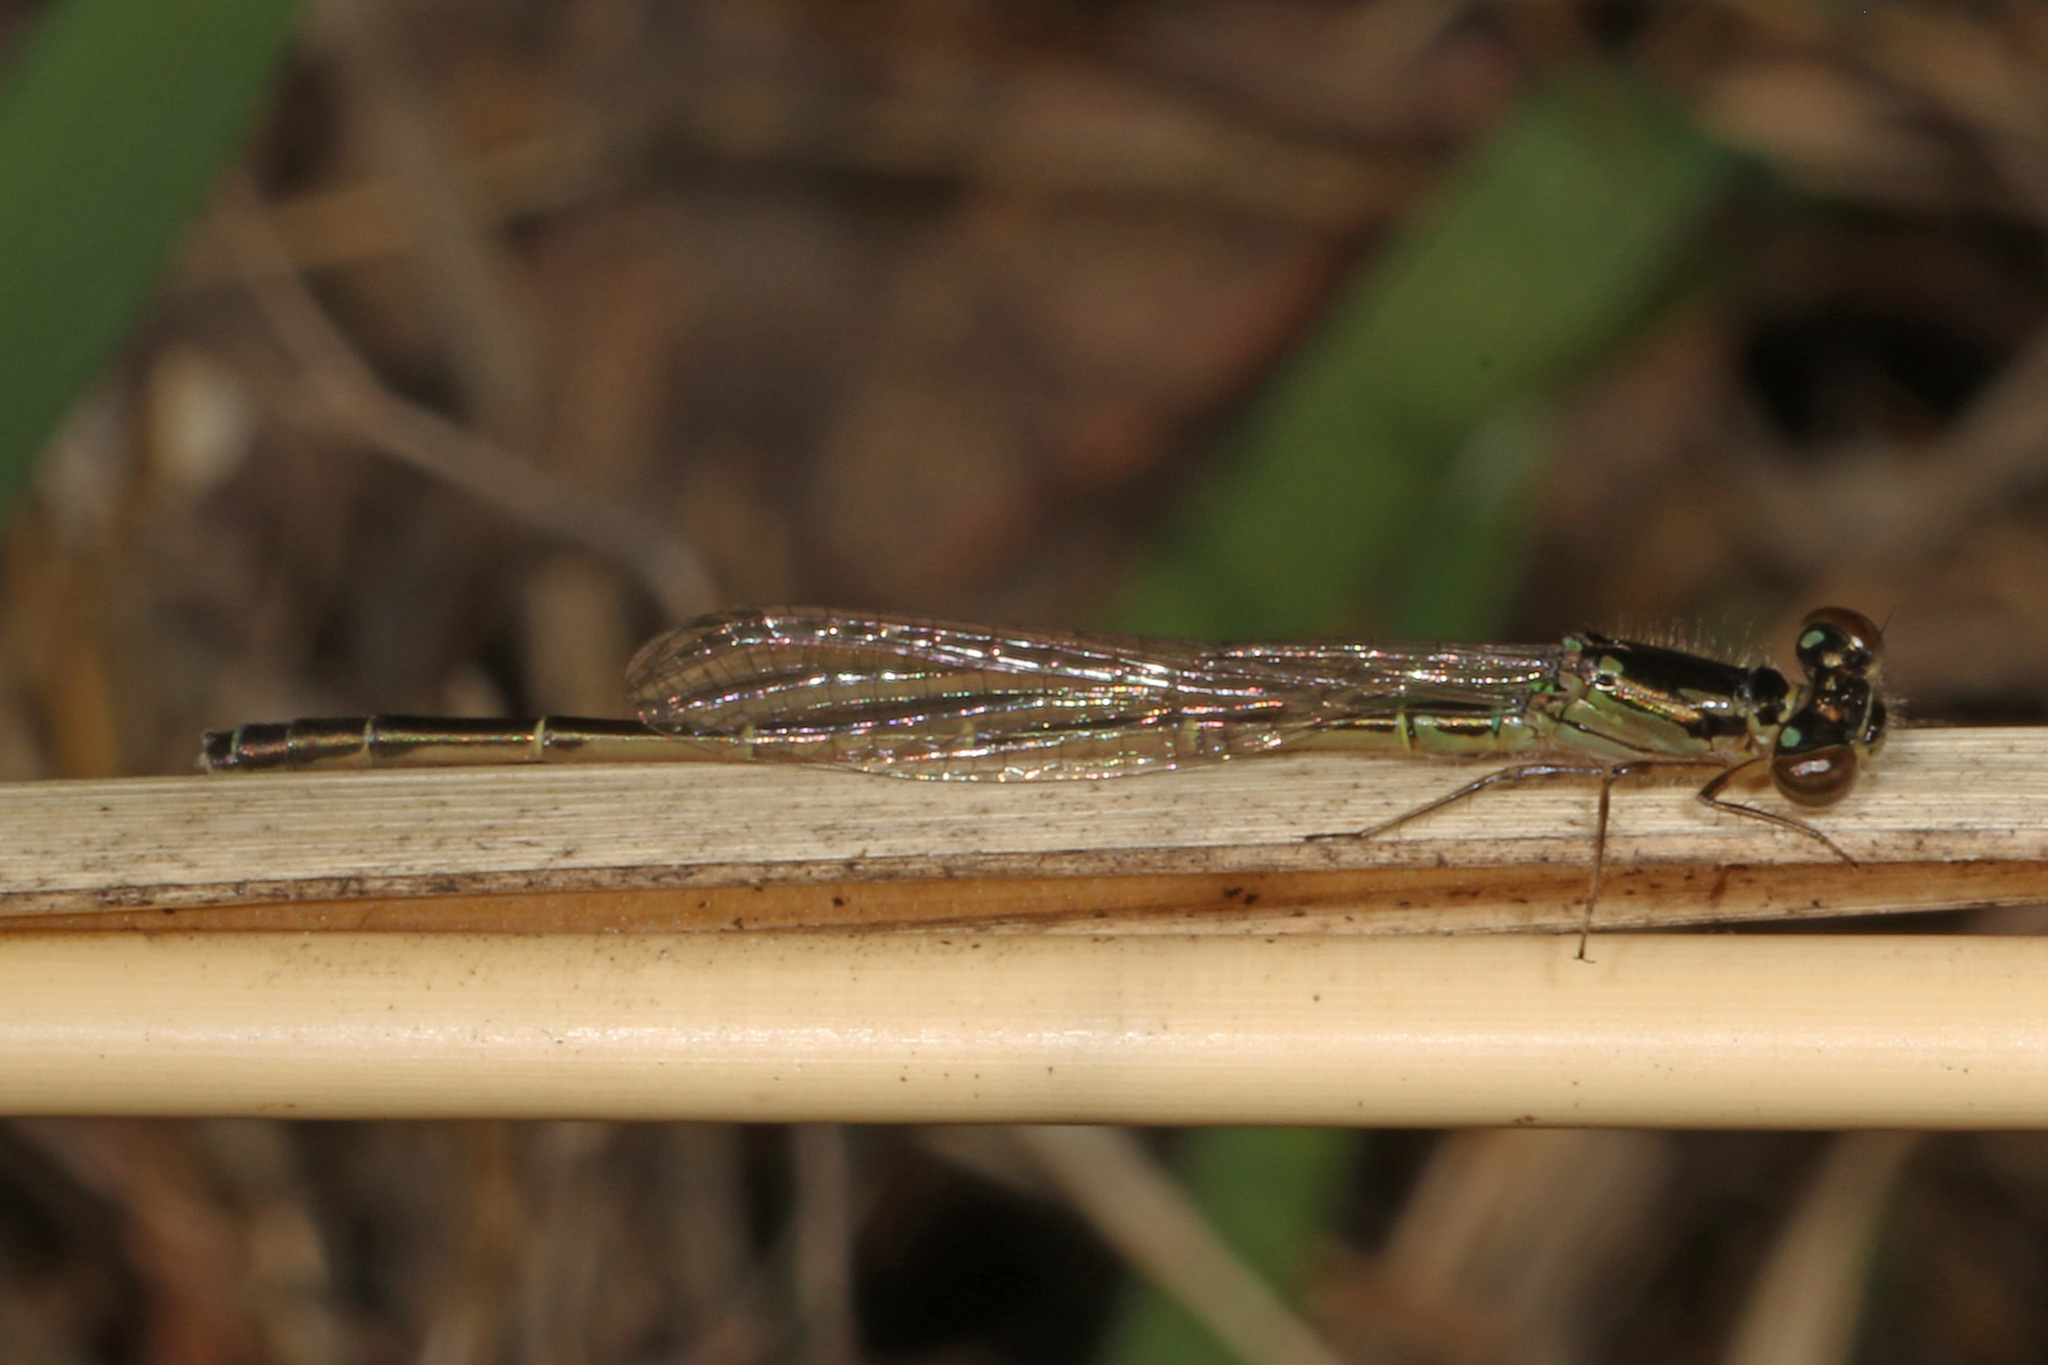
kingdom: Animalia
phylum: Arthropoda
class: Insecta
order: Odonata
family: Coenagrionidae
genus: Ischnura
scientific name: Ischnura posita
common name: Fragile forktail
